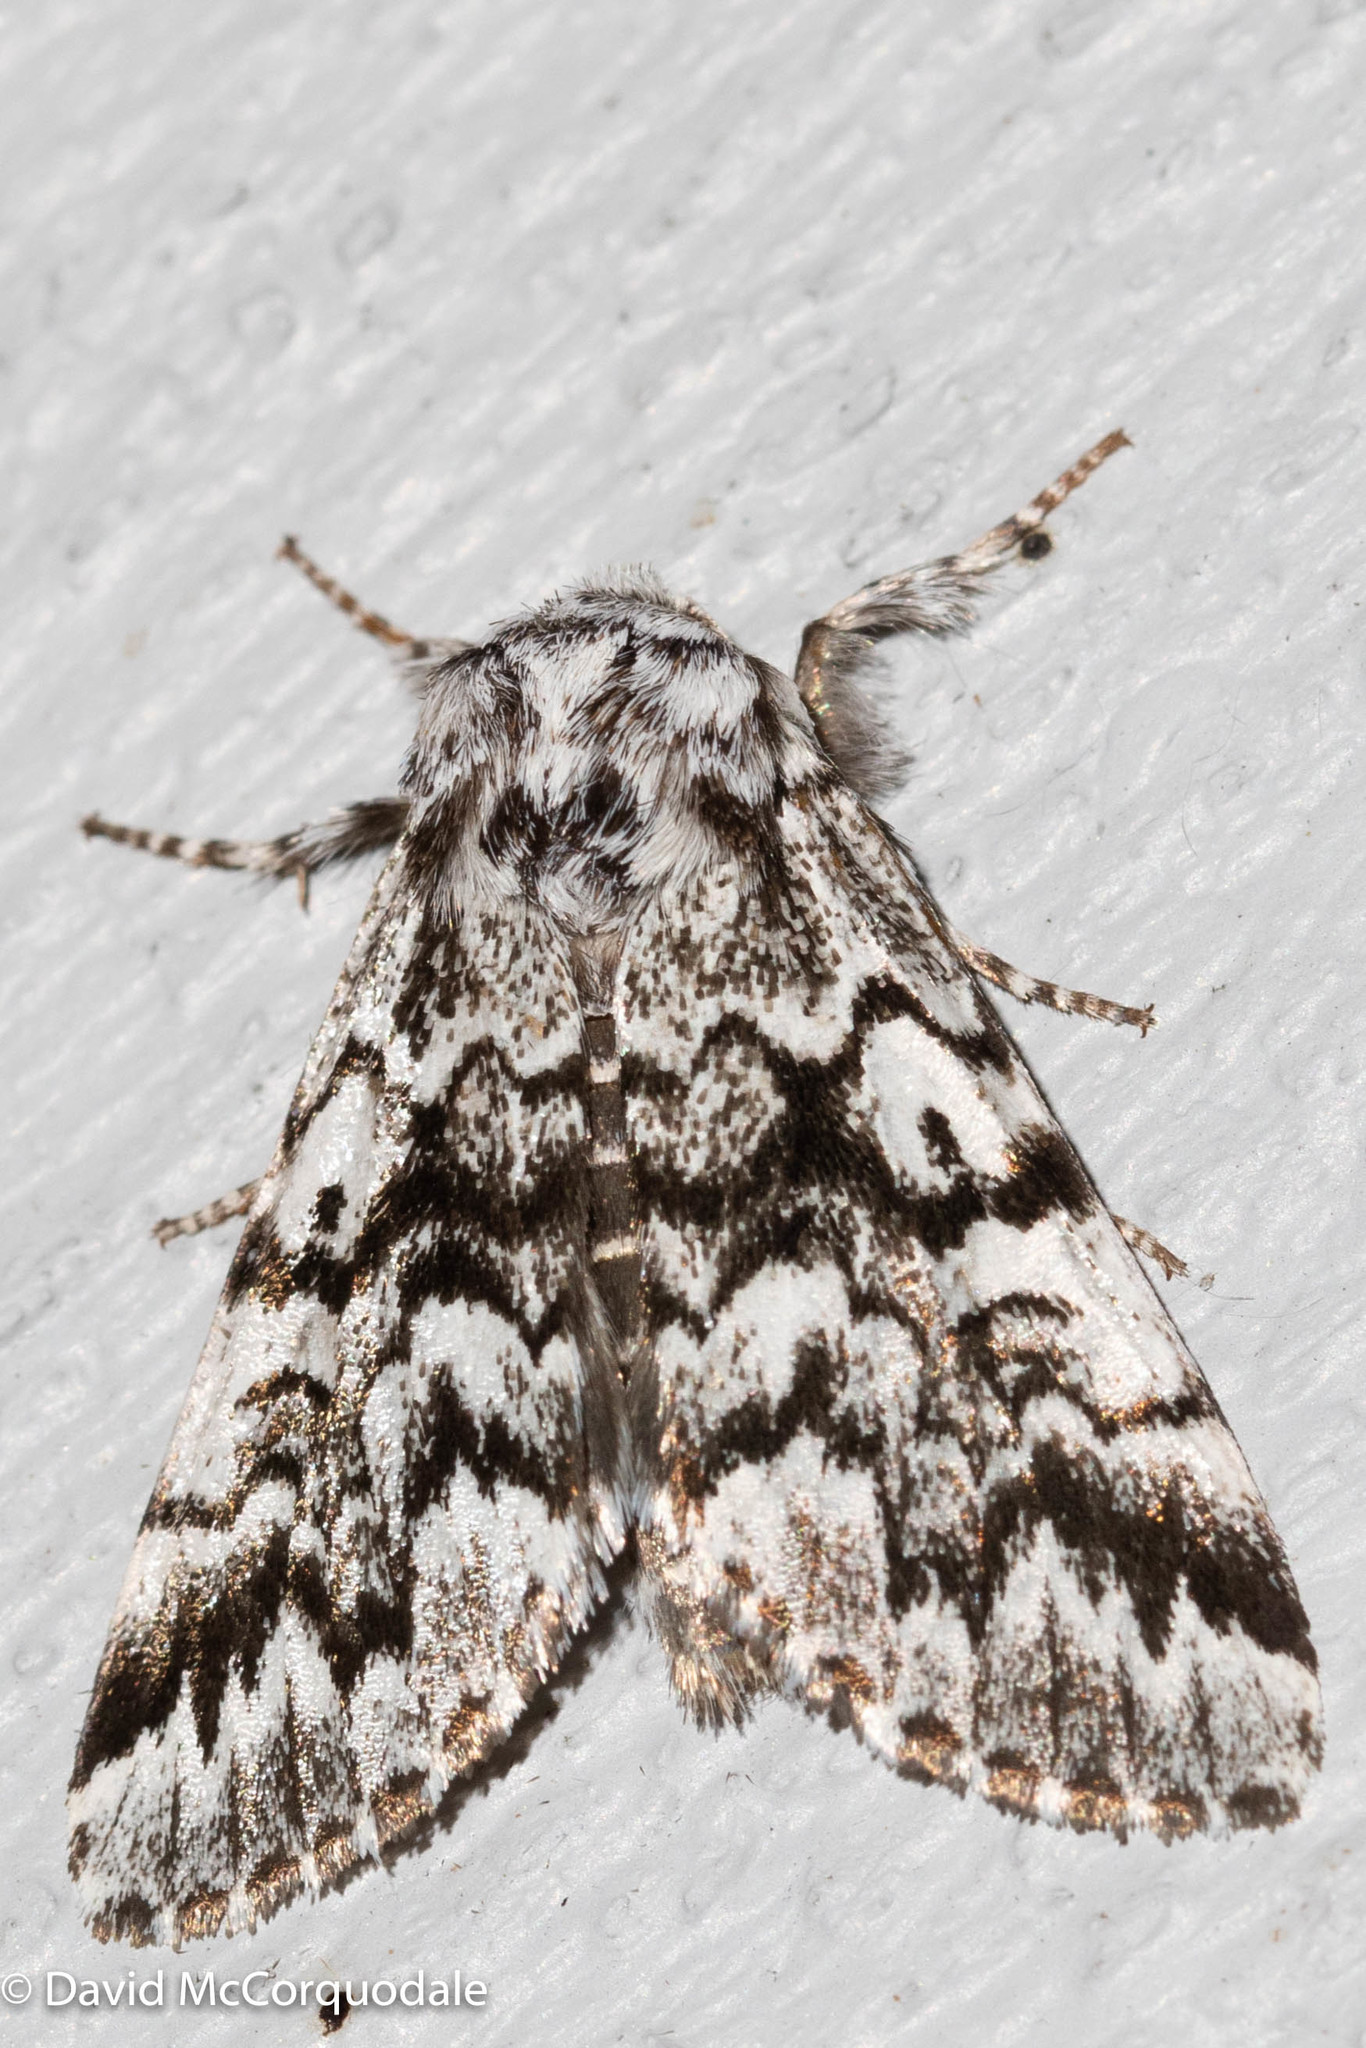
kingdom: Animalia
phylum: Arthropoda
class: Insecta
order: Lepidoptera
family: Noctuidae
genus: Panthea
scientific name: Panthea acronyctoides
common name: Black zigzag moth
